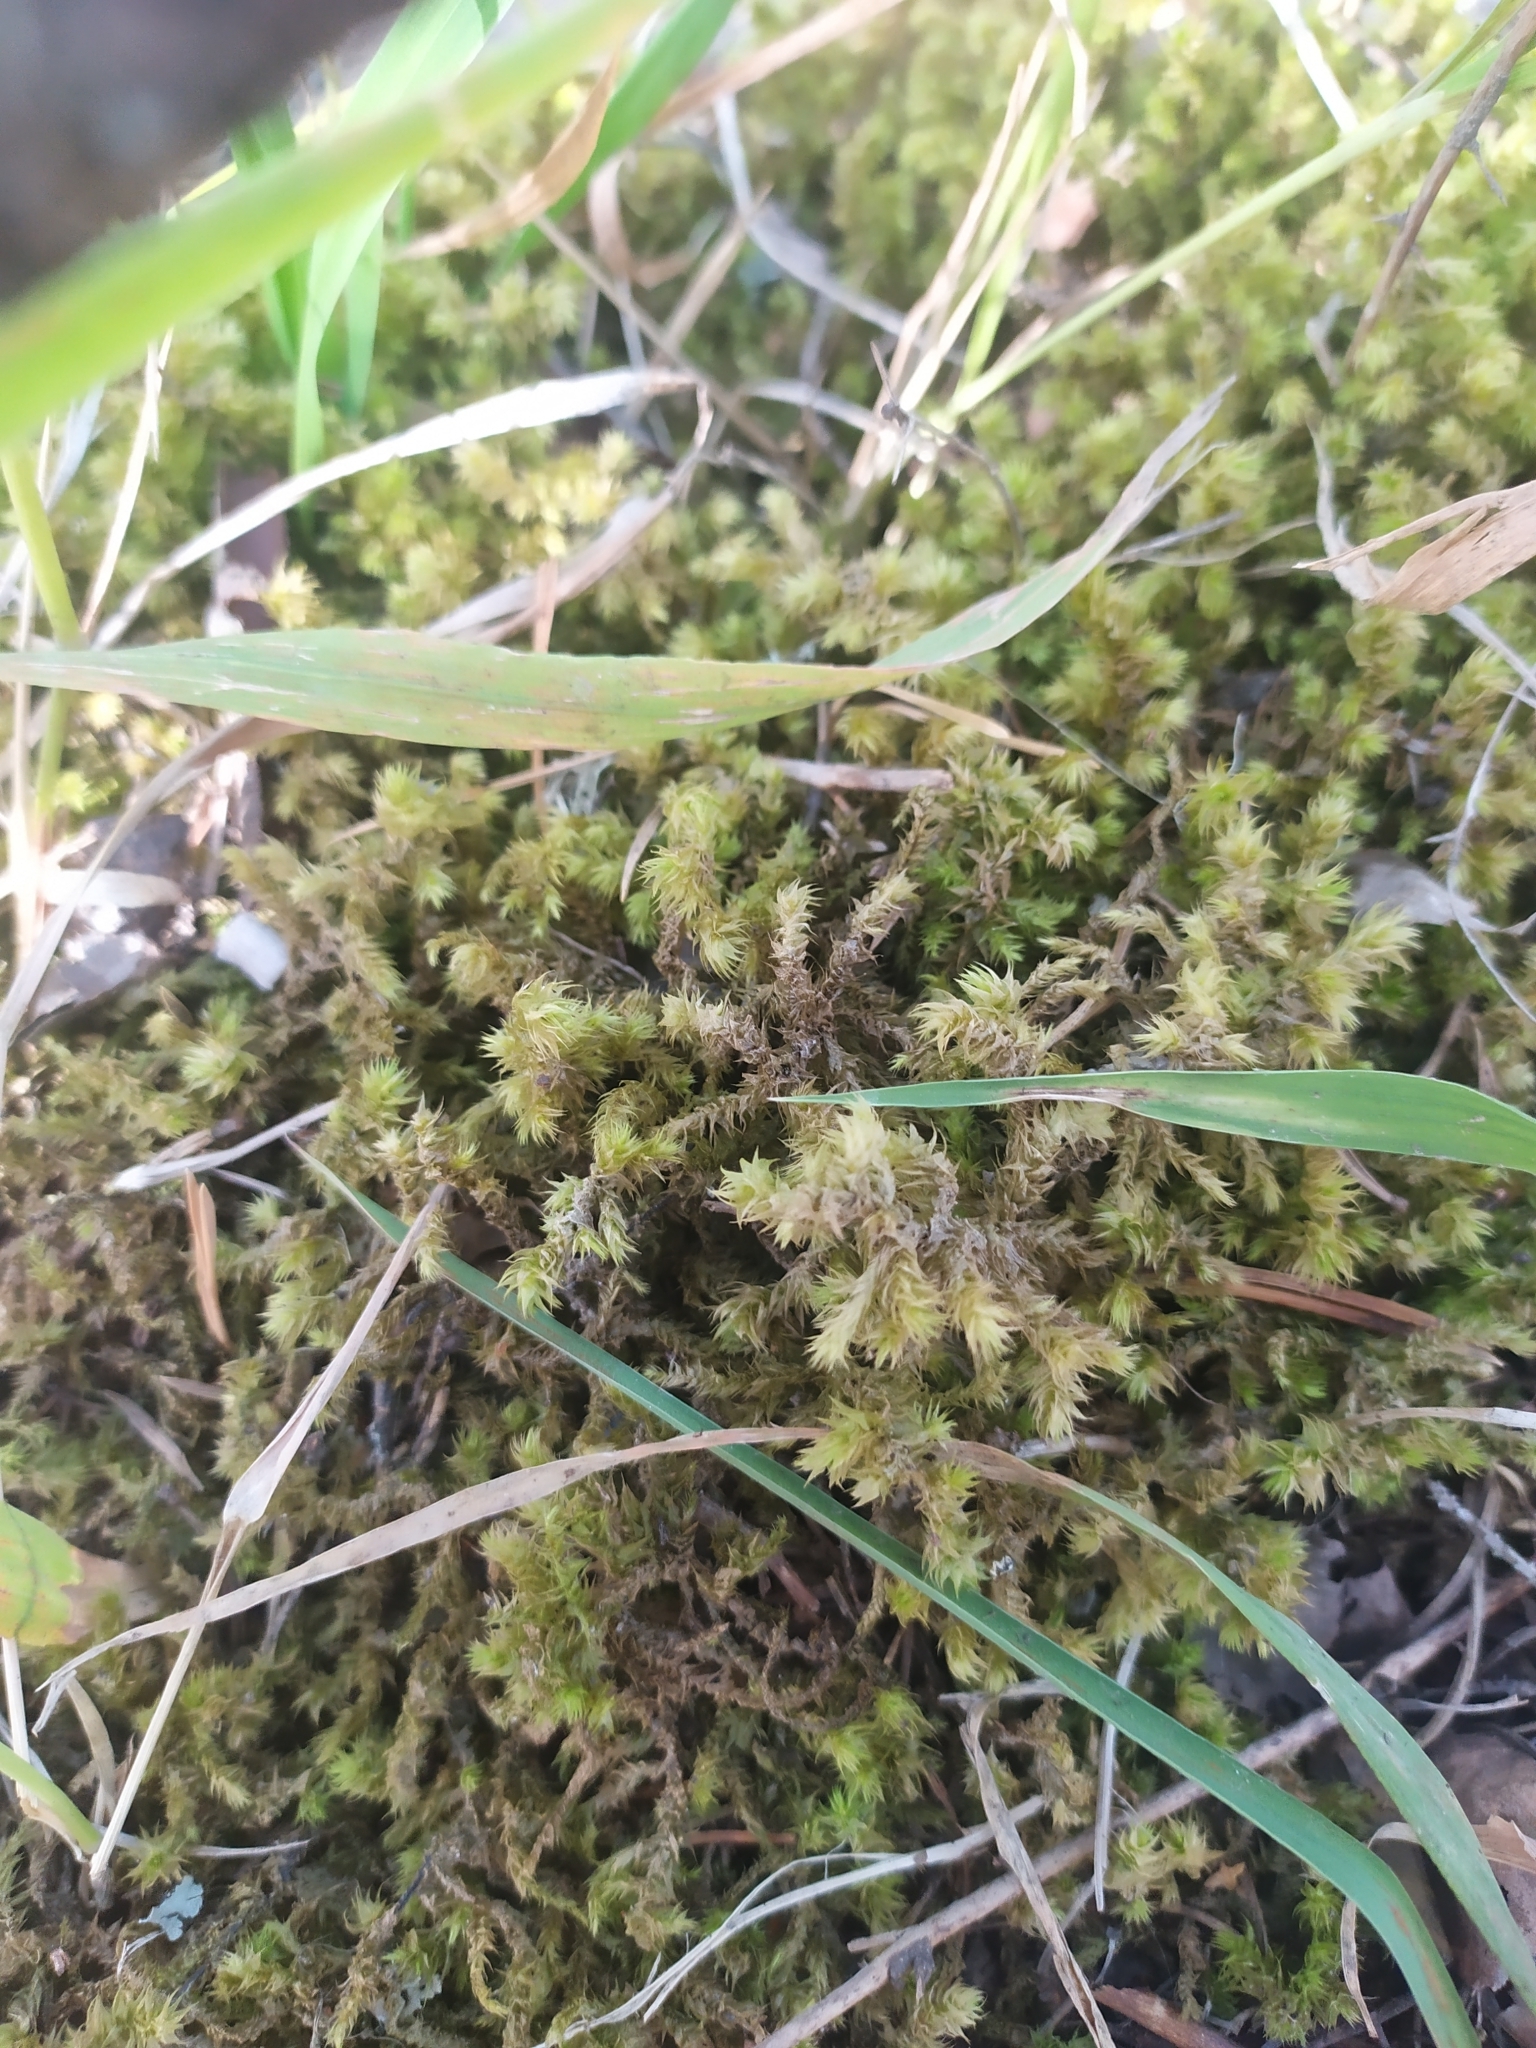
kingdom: Plantae
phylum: Bryophyta
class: Bryopsida
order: Hypnales
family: Hylocomiaceae
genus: Hylocomiadelphus
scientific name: Hylocomiadelphus triquetrus
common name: Rough goose neck moss
